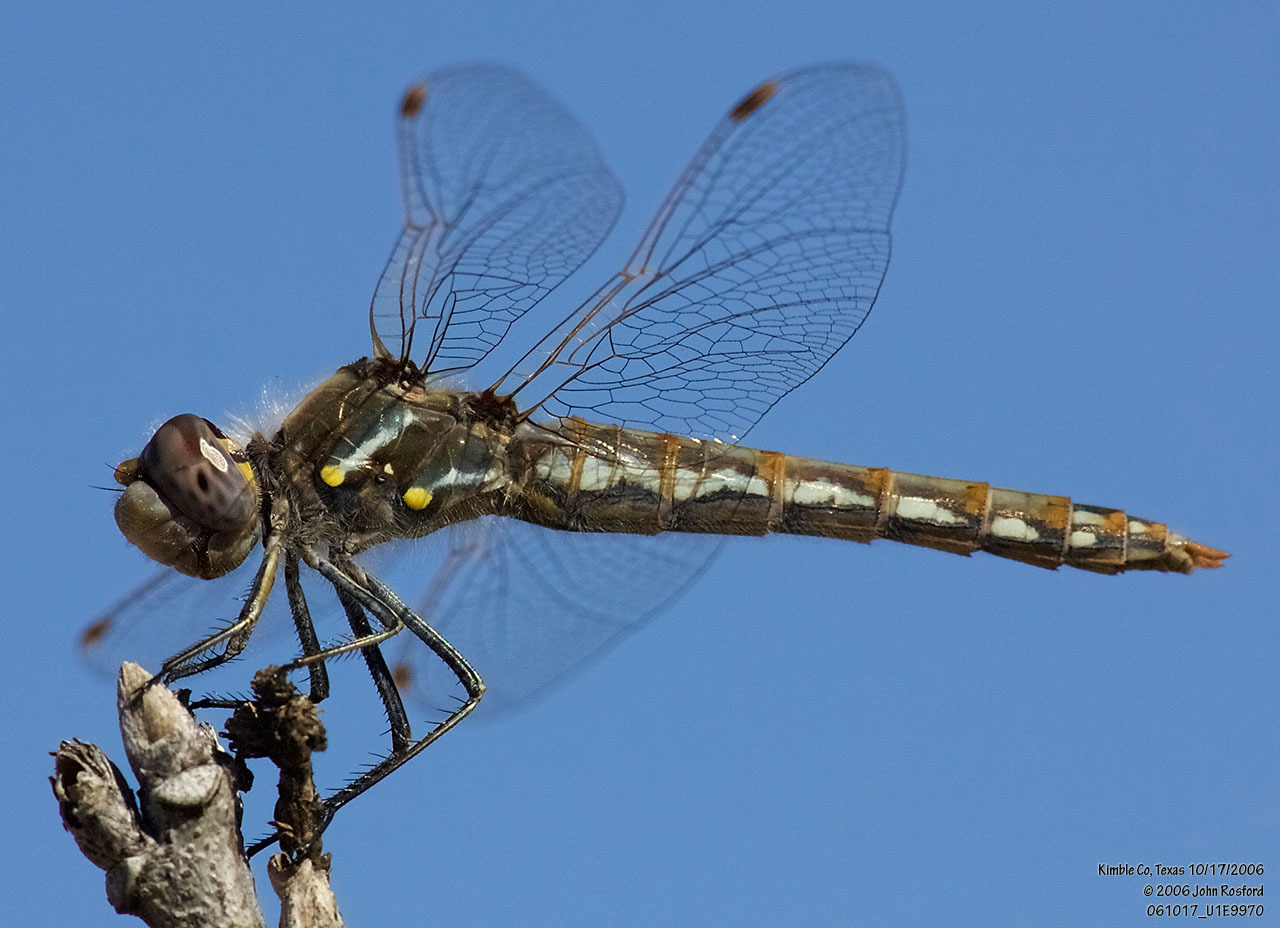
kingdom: Animalia
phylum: Arthropoda
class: Insecta
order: Odonata
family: Libellulidae
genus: Sympetrum
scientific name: Sympetrum corruptum
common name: Variegated meadowhawk
